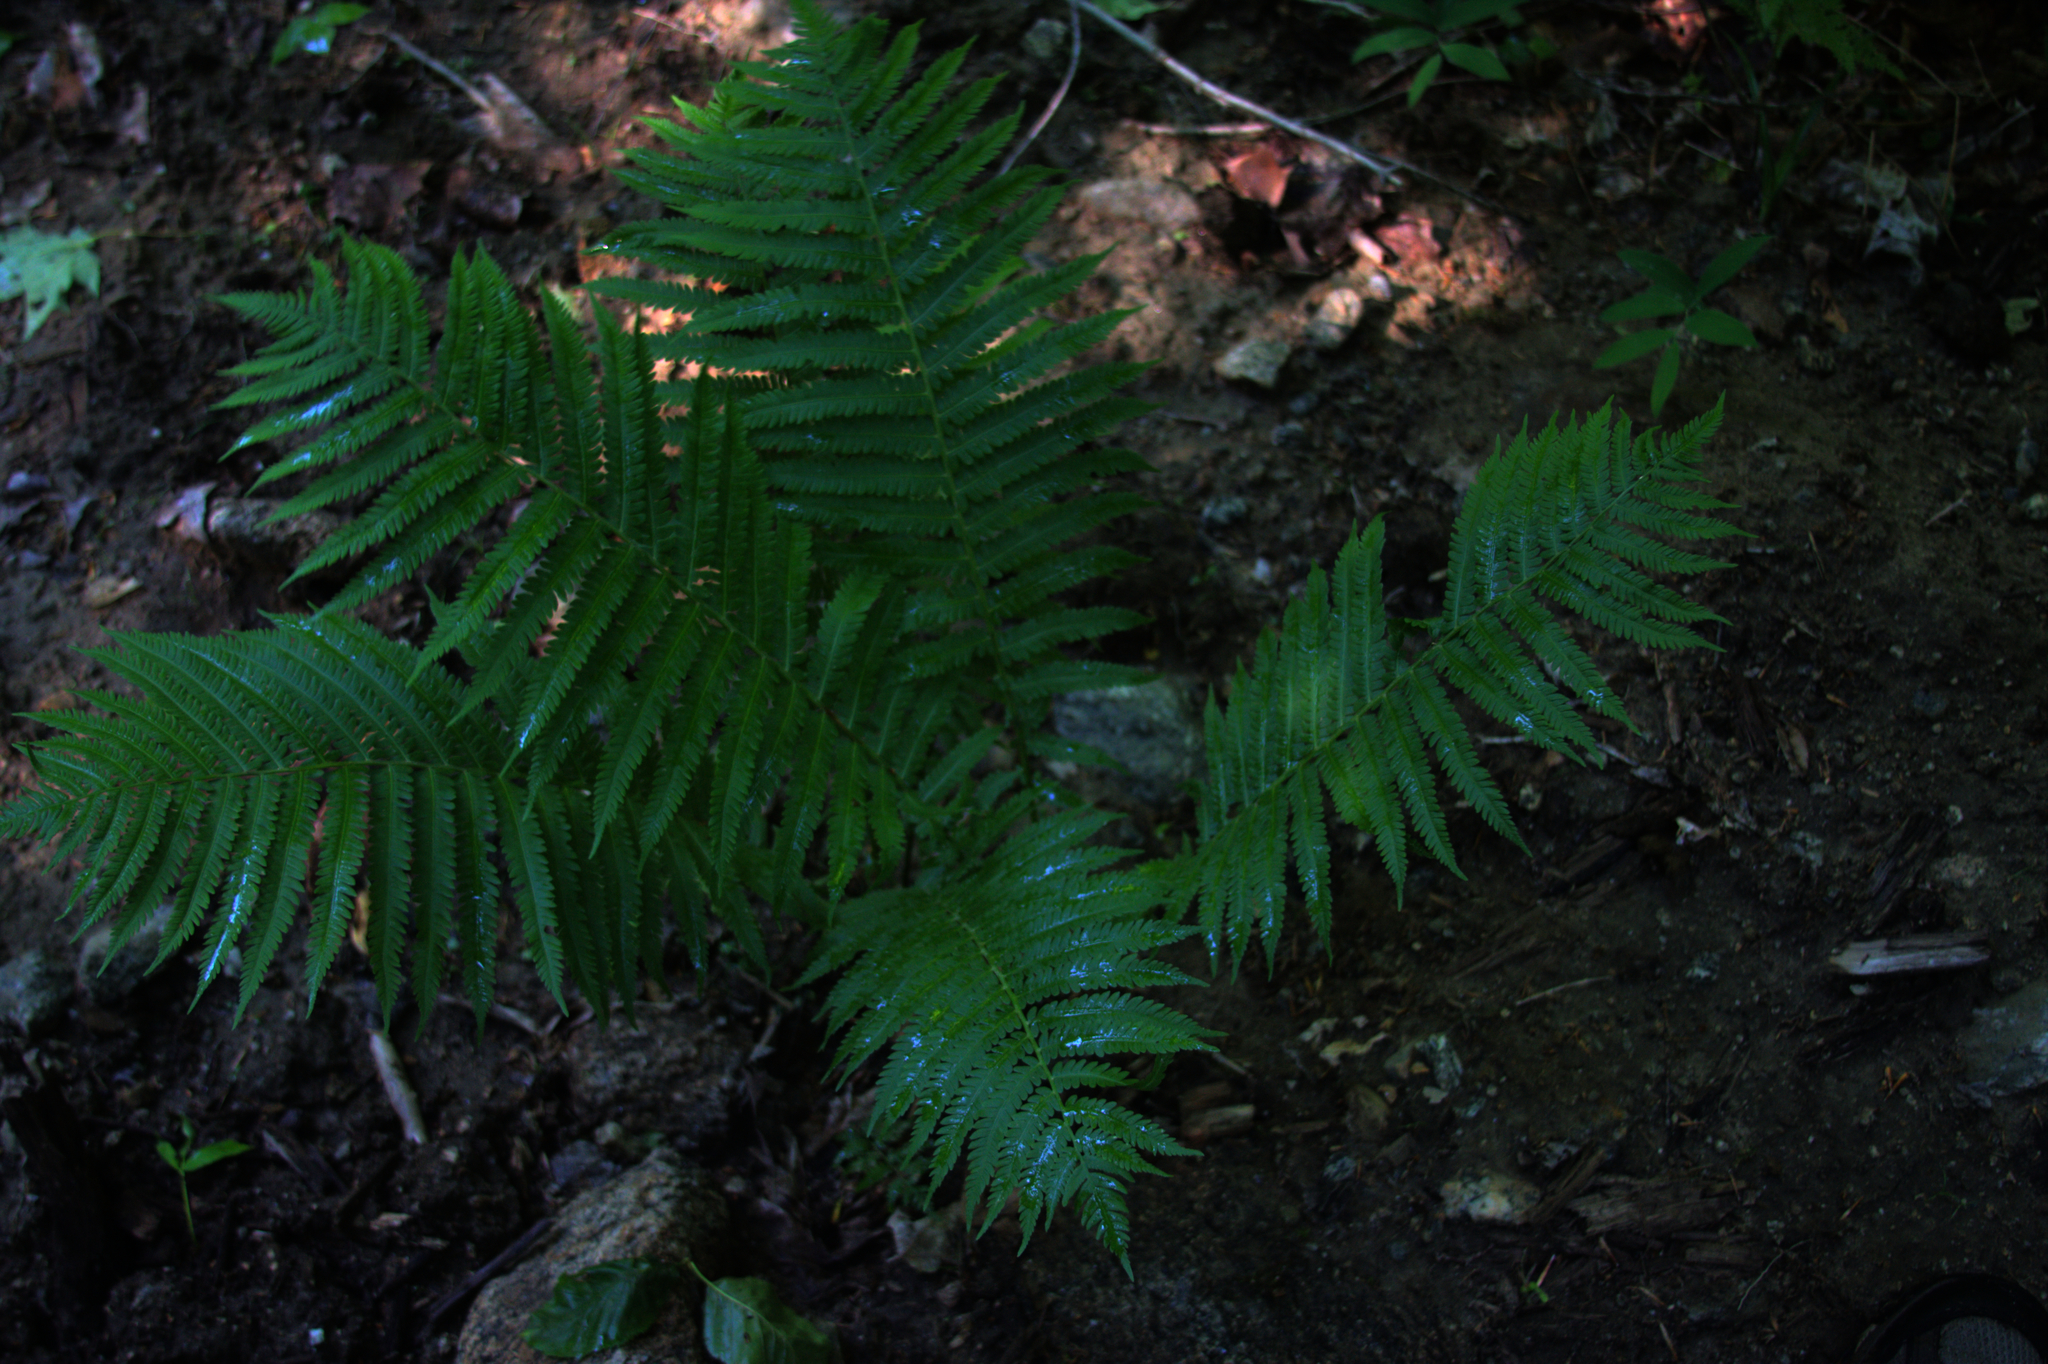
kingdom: Plantae
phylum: Tracheophyta
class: Polypodiopsida
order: Polypodiales
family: Onocleaceae
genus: Matteuccia
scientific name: Matteuccia struthiopteris
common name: Ostrich fern
